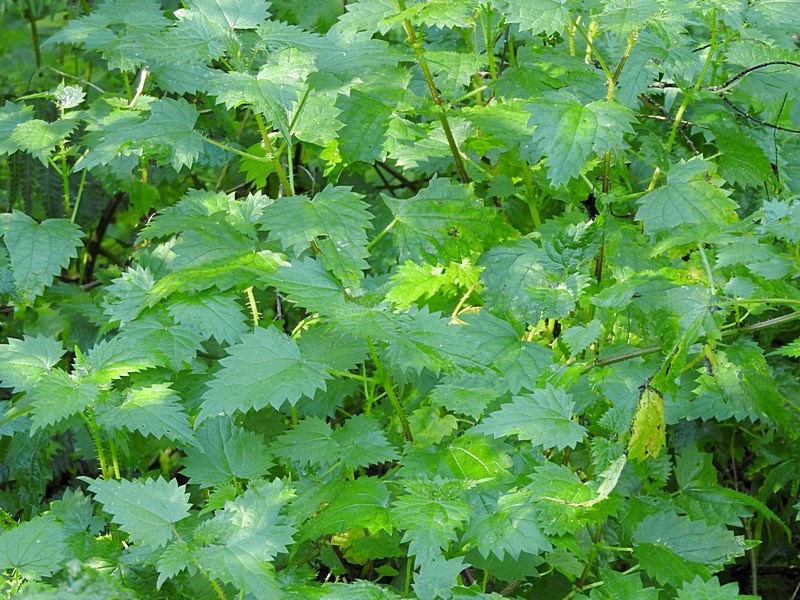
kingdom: Plantae
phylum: Tracheophyta
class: Magnoliopsida
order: Rosales
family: Urticaceae
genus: Urtica
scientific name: Urtica incisa
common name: Scrub nettle
